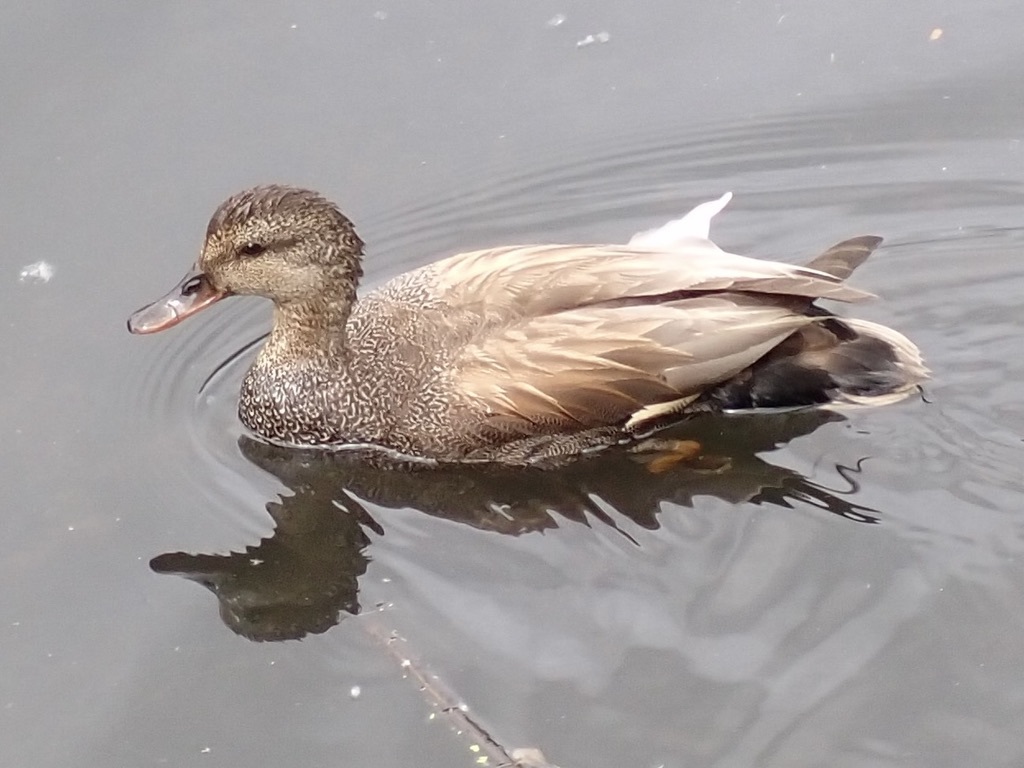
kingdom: Animalia
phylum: Chordata
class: Aves
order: Anseriformes
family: Anatidae
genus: Mareca
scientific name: Mareca strepera
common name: Gadwall
